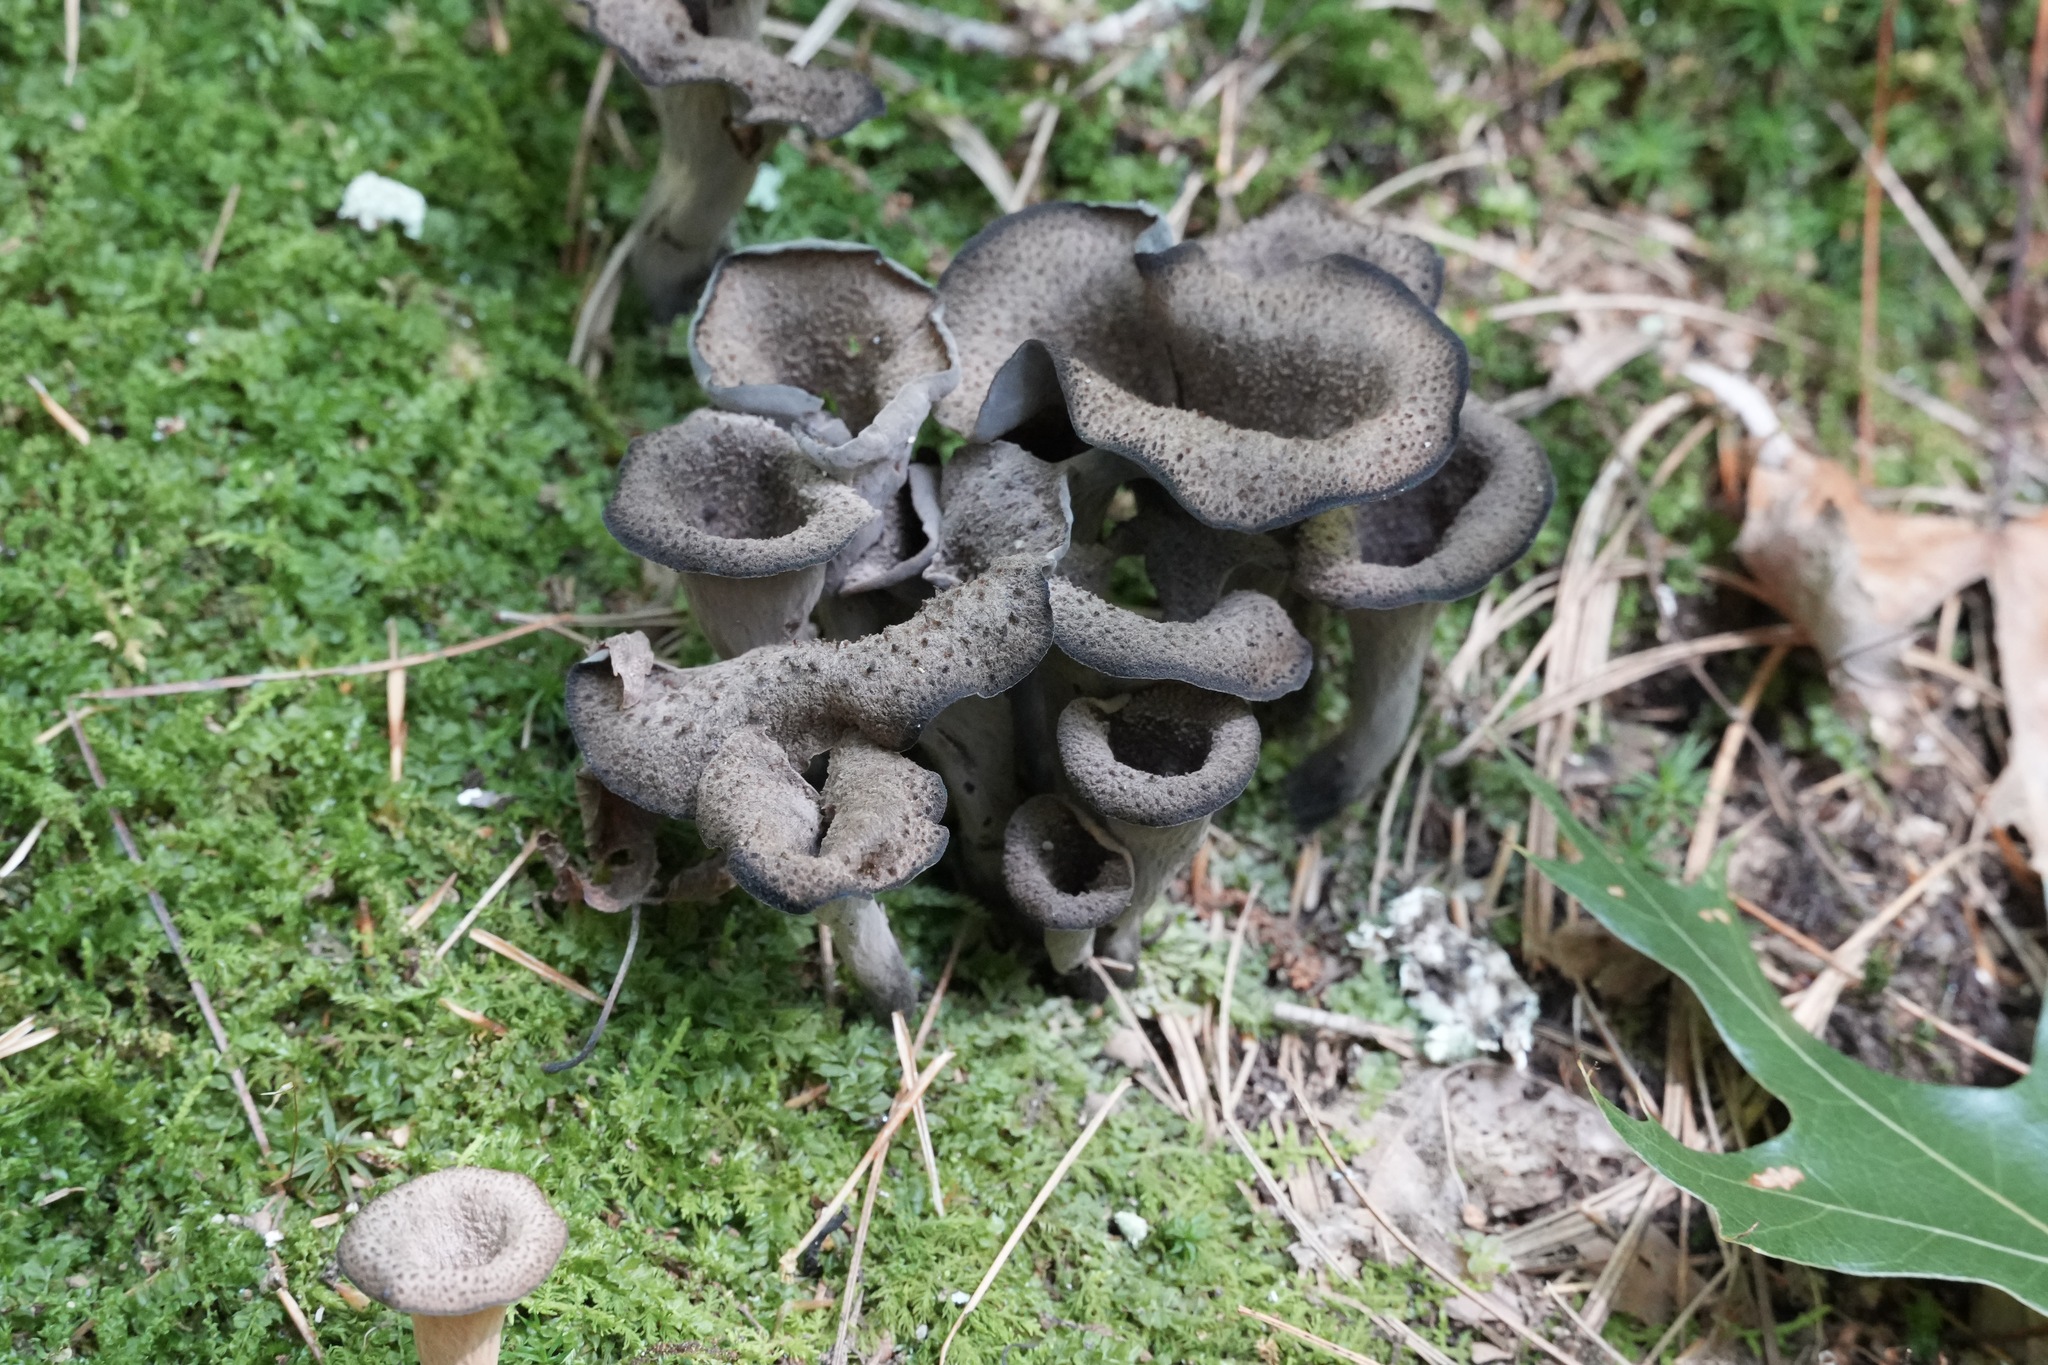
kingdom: Fungi
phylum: Basidiomycota
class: Agaricomycetes
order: Cantharellales
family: Hydnaceae
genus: Craterellus
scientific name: Craterellus cornucopioides
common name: Horn of plenty
